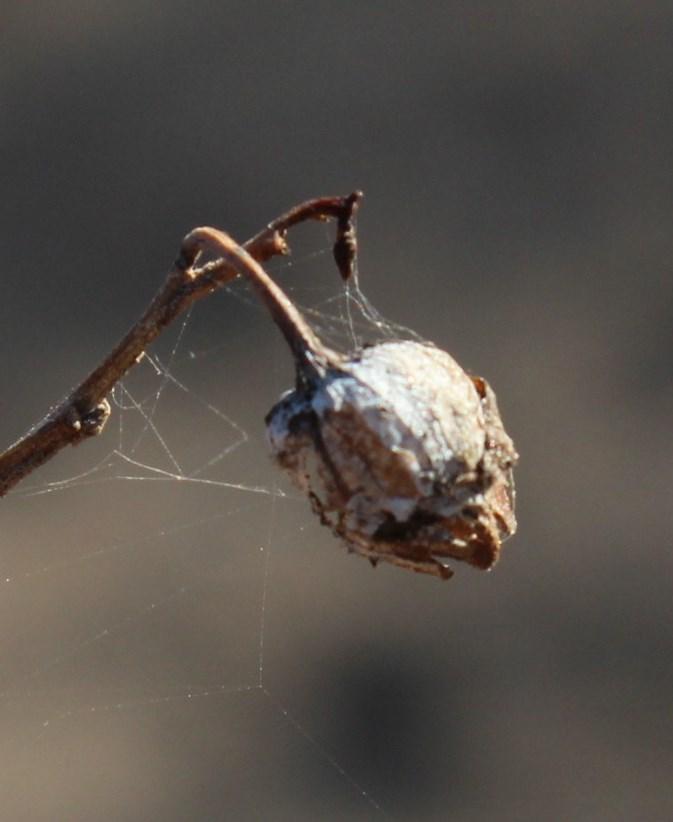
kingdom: Plantae
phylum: Tracheophyta
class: Magnoliopsida
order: Solanales
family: Solanaceae
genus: Nicotiana
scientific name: Nicotiana glauca
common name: Tree tobacco
